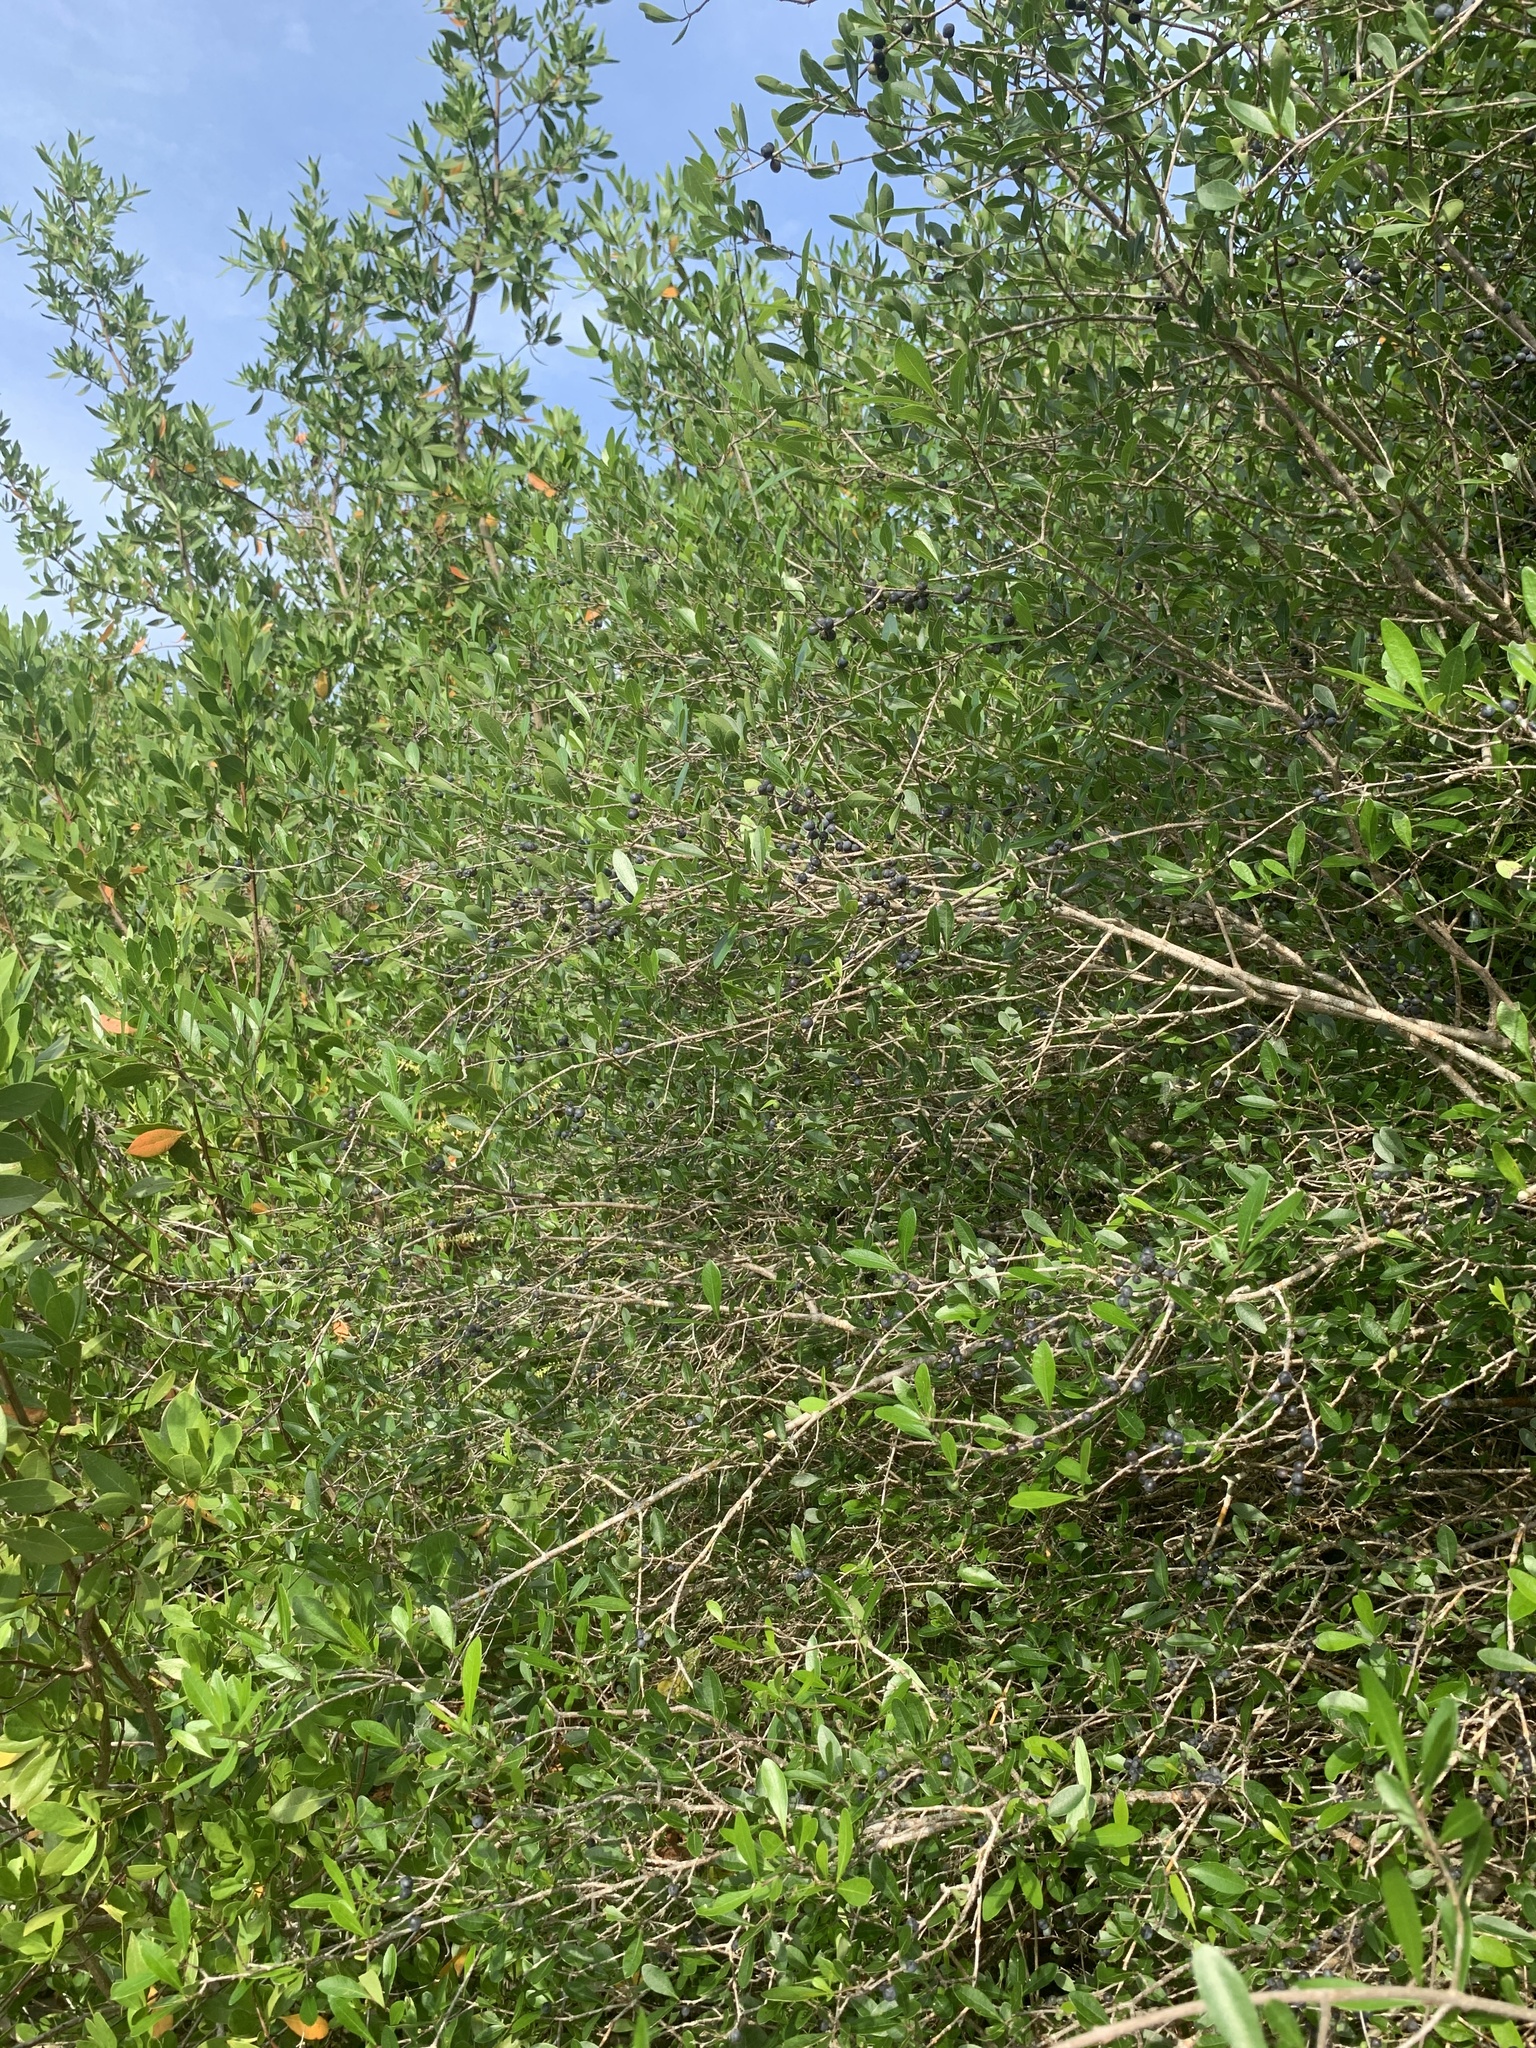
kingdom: Plantae
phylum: Tracheophyta
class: Magnoliopsida
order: Lamiales
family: Oleaceae
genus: Forestiera
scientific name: Forestiera segregata
